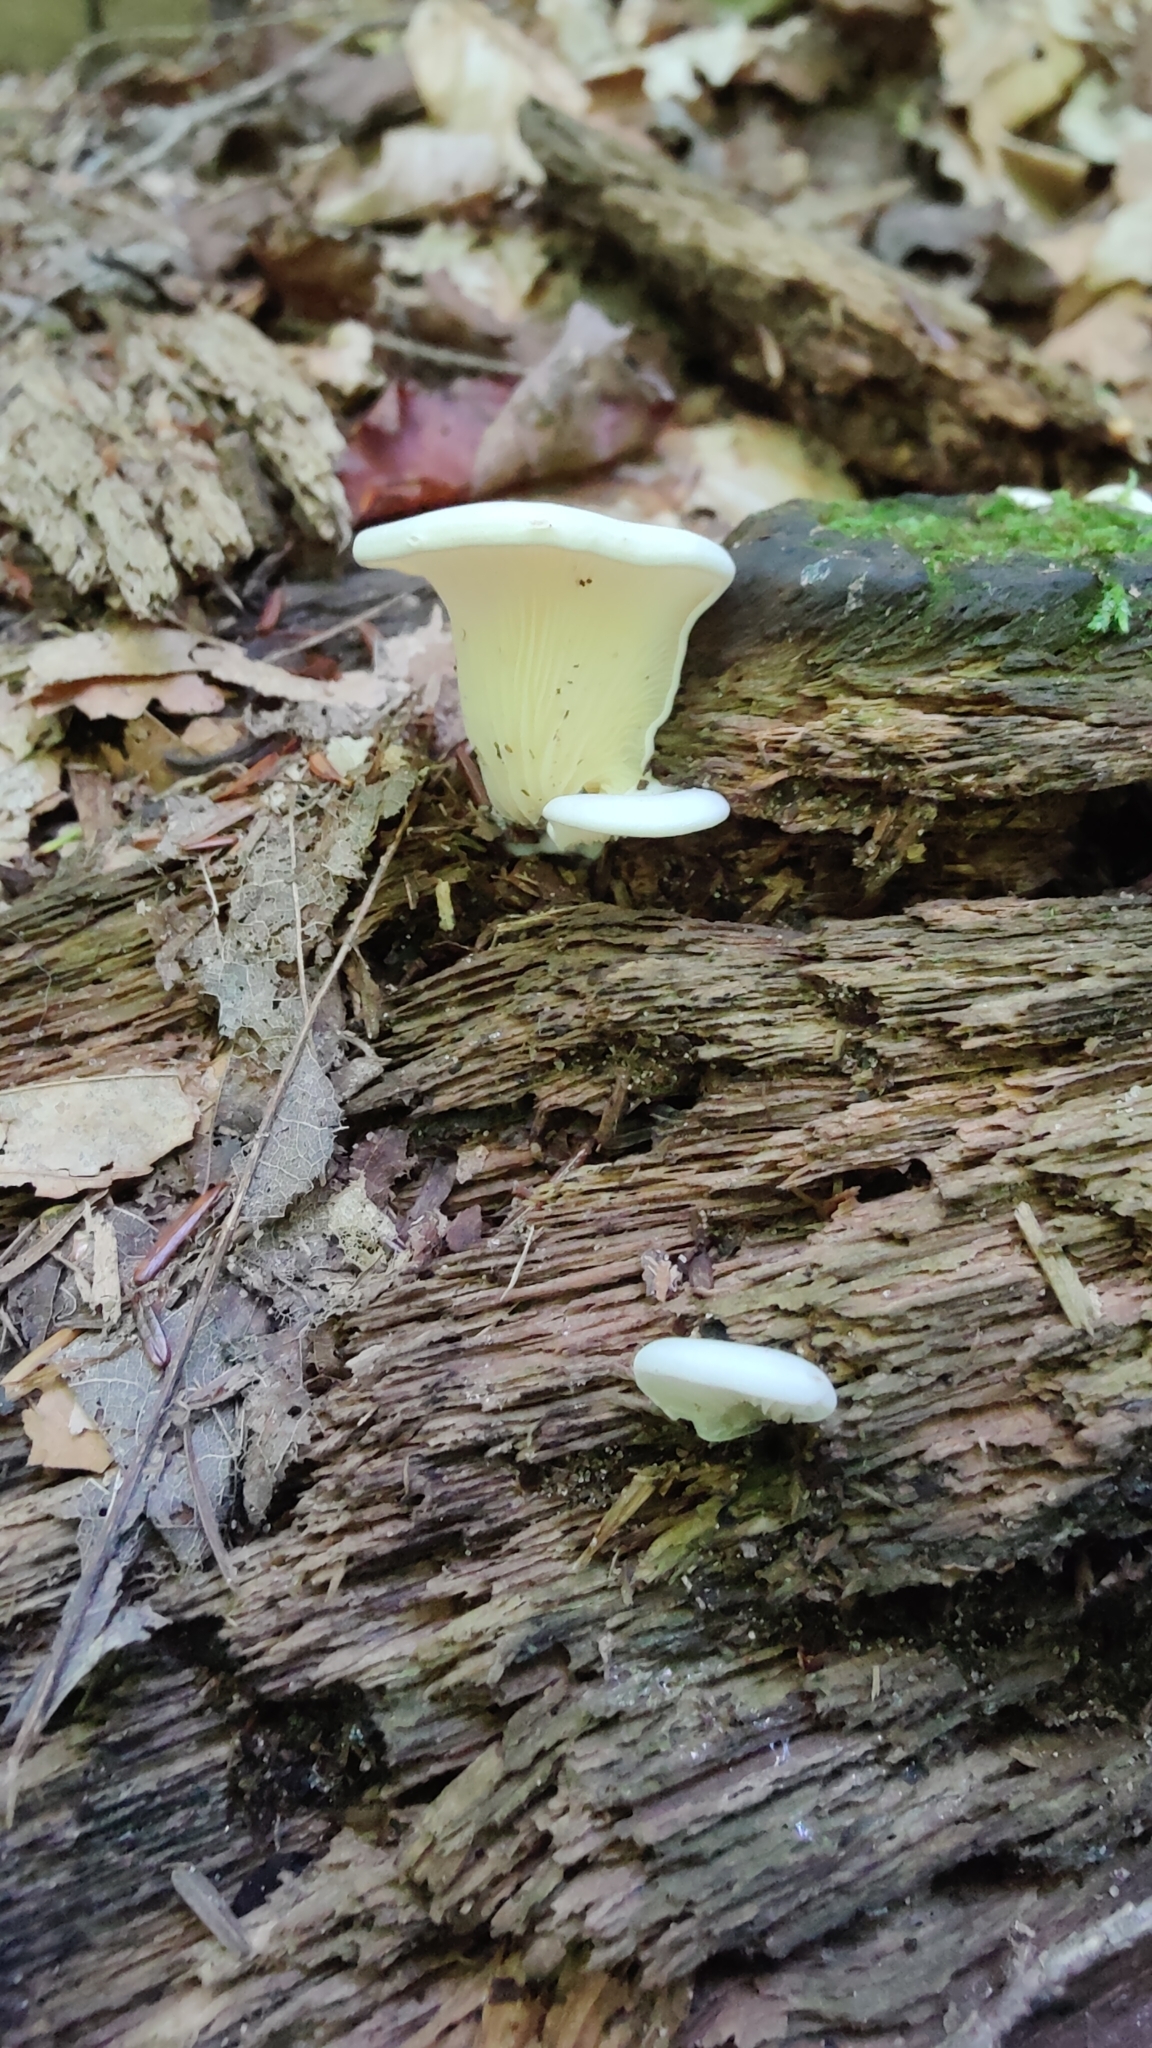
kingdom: Fungi
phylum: Basidiomycota
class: Agaricomycetes
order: Agaricales
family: Marasmiaceae
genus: Pleurocybella
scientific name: Pleurocybella porrigens
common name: Angel's wings
